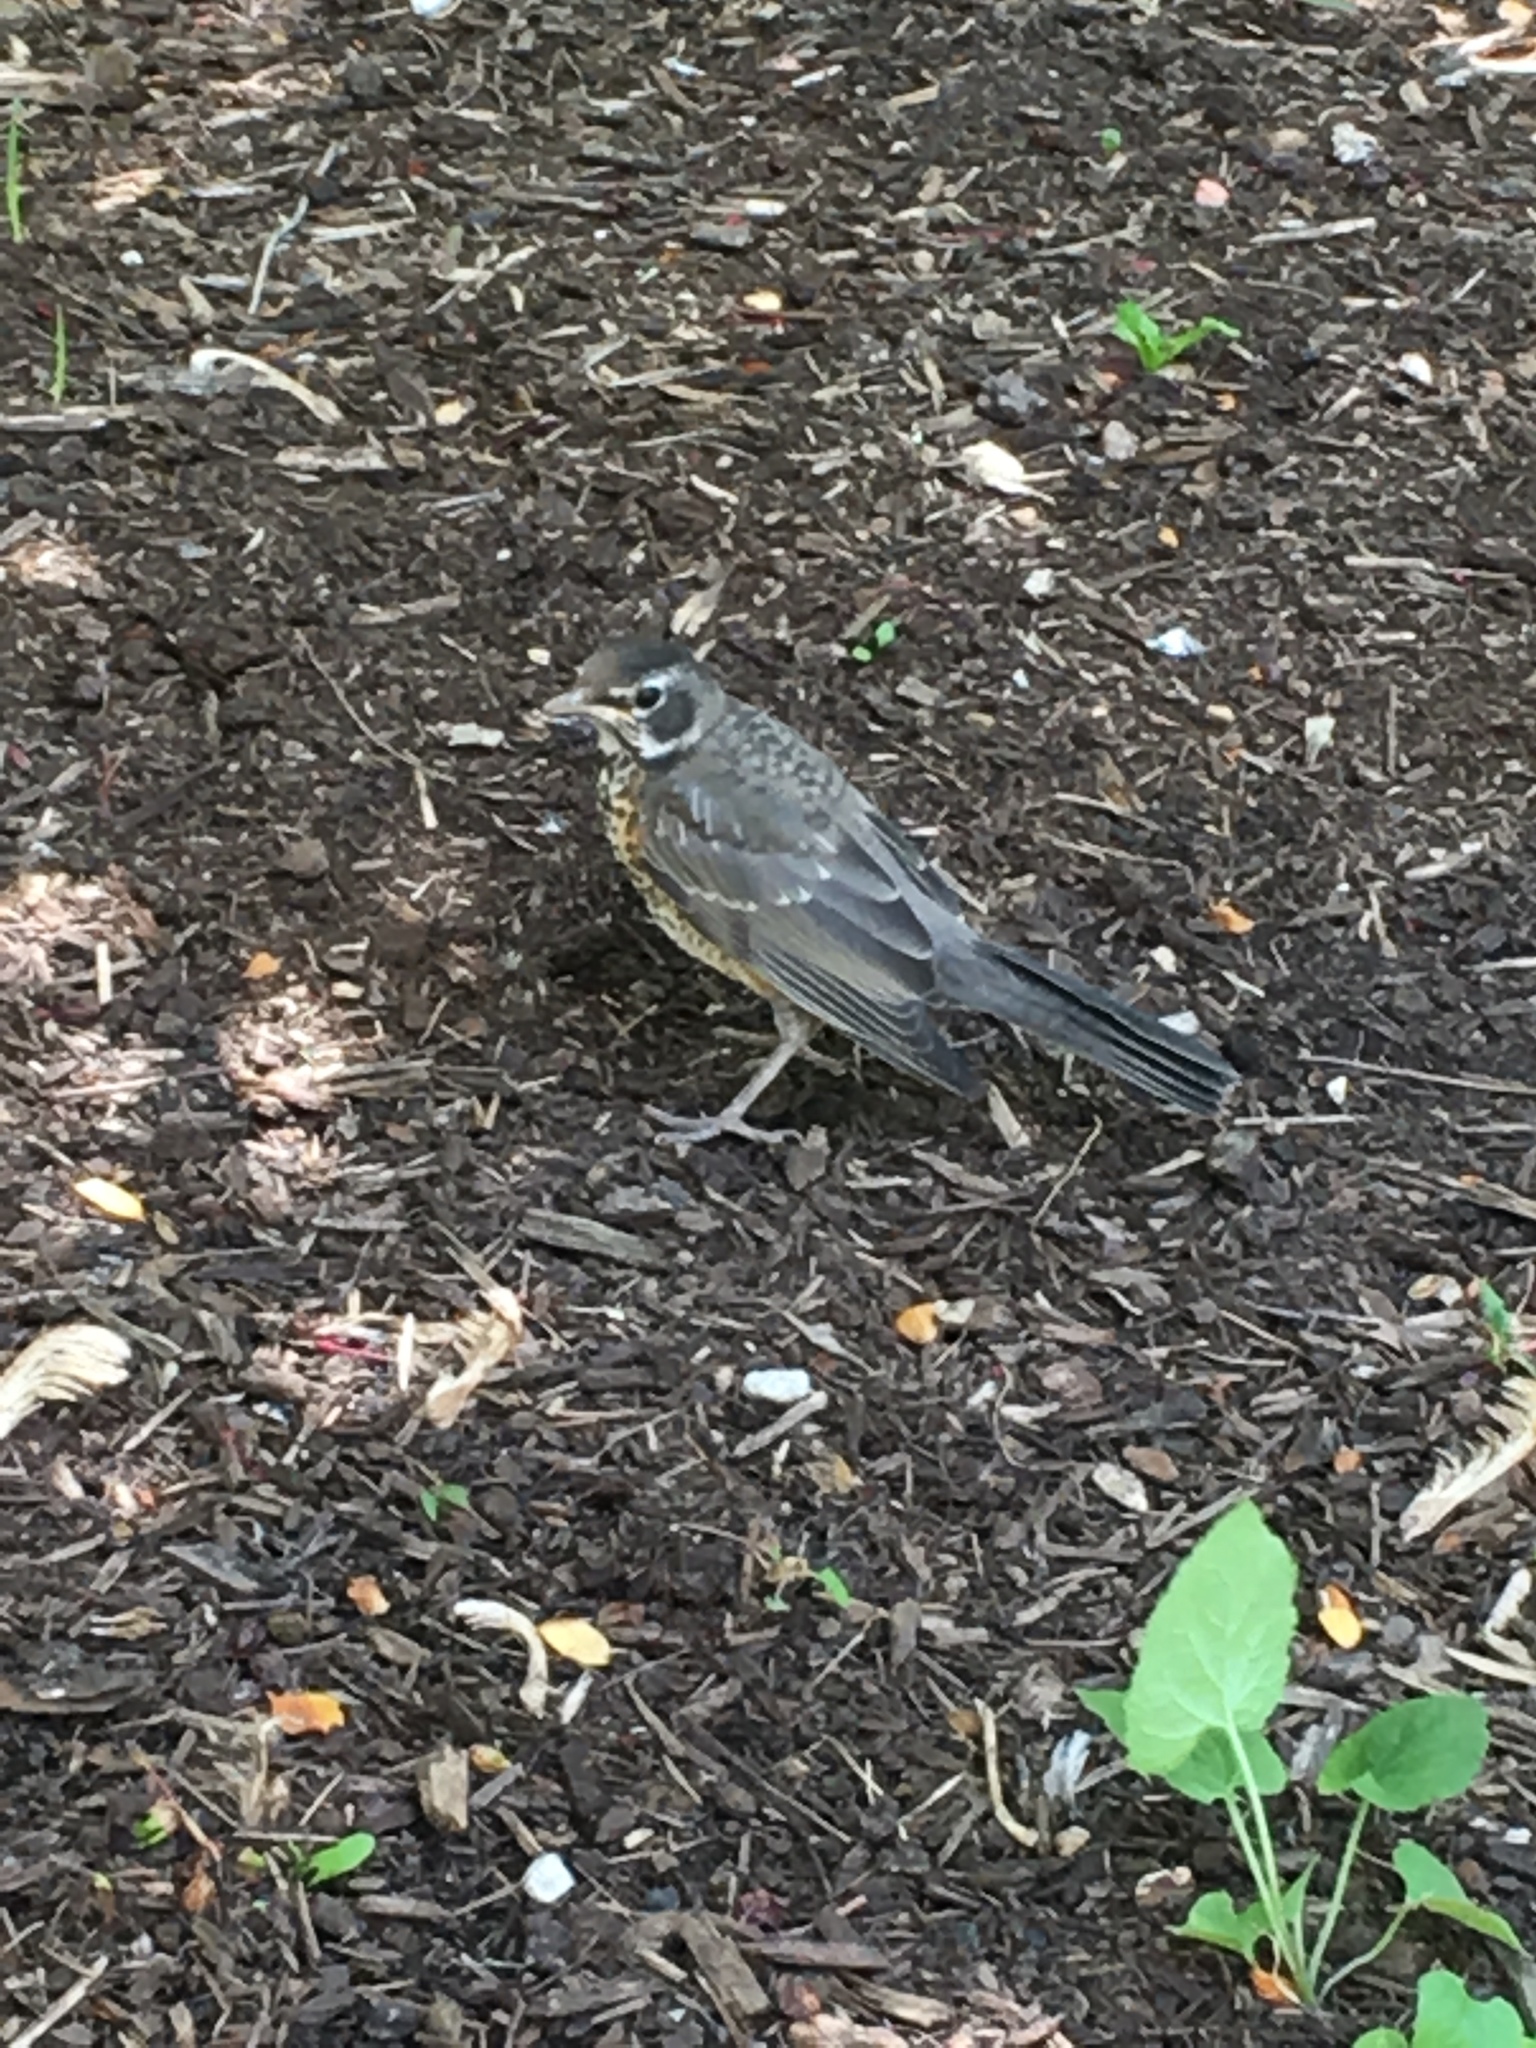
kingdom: Animalia
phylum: Chordata
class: Aves
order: Passeriformes
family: Turdidae
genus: Turdus
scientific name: Turdus migratorius
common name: American robin
